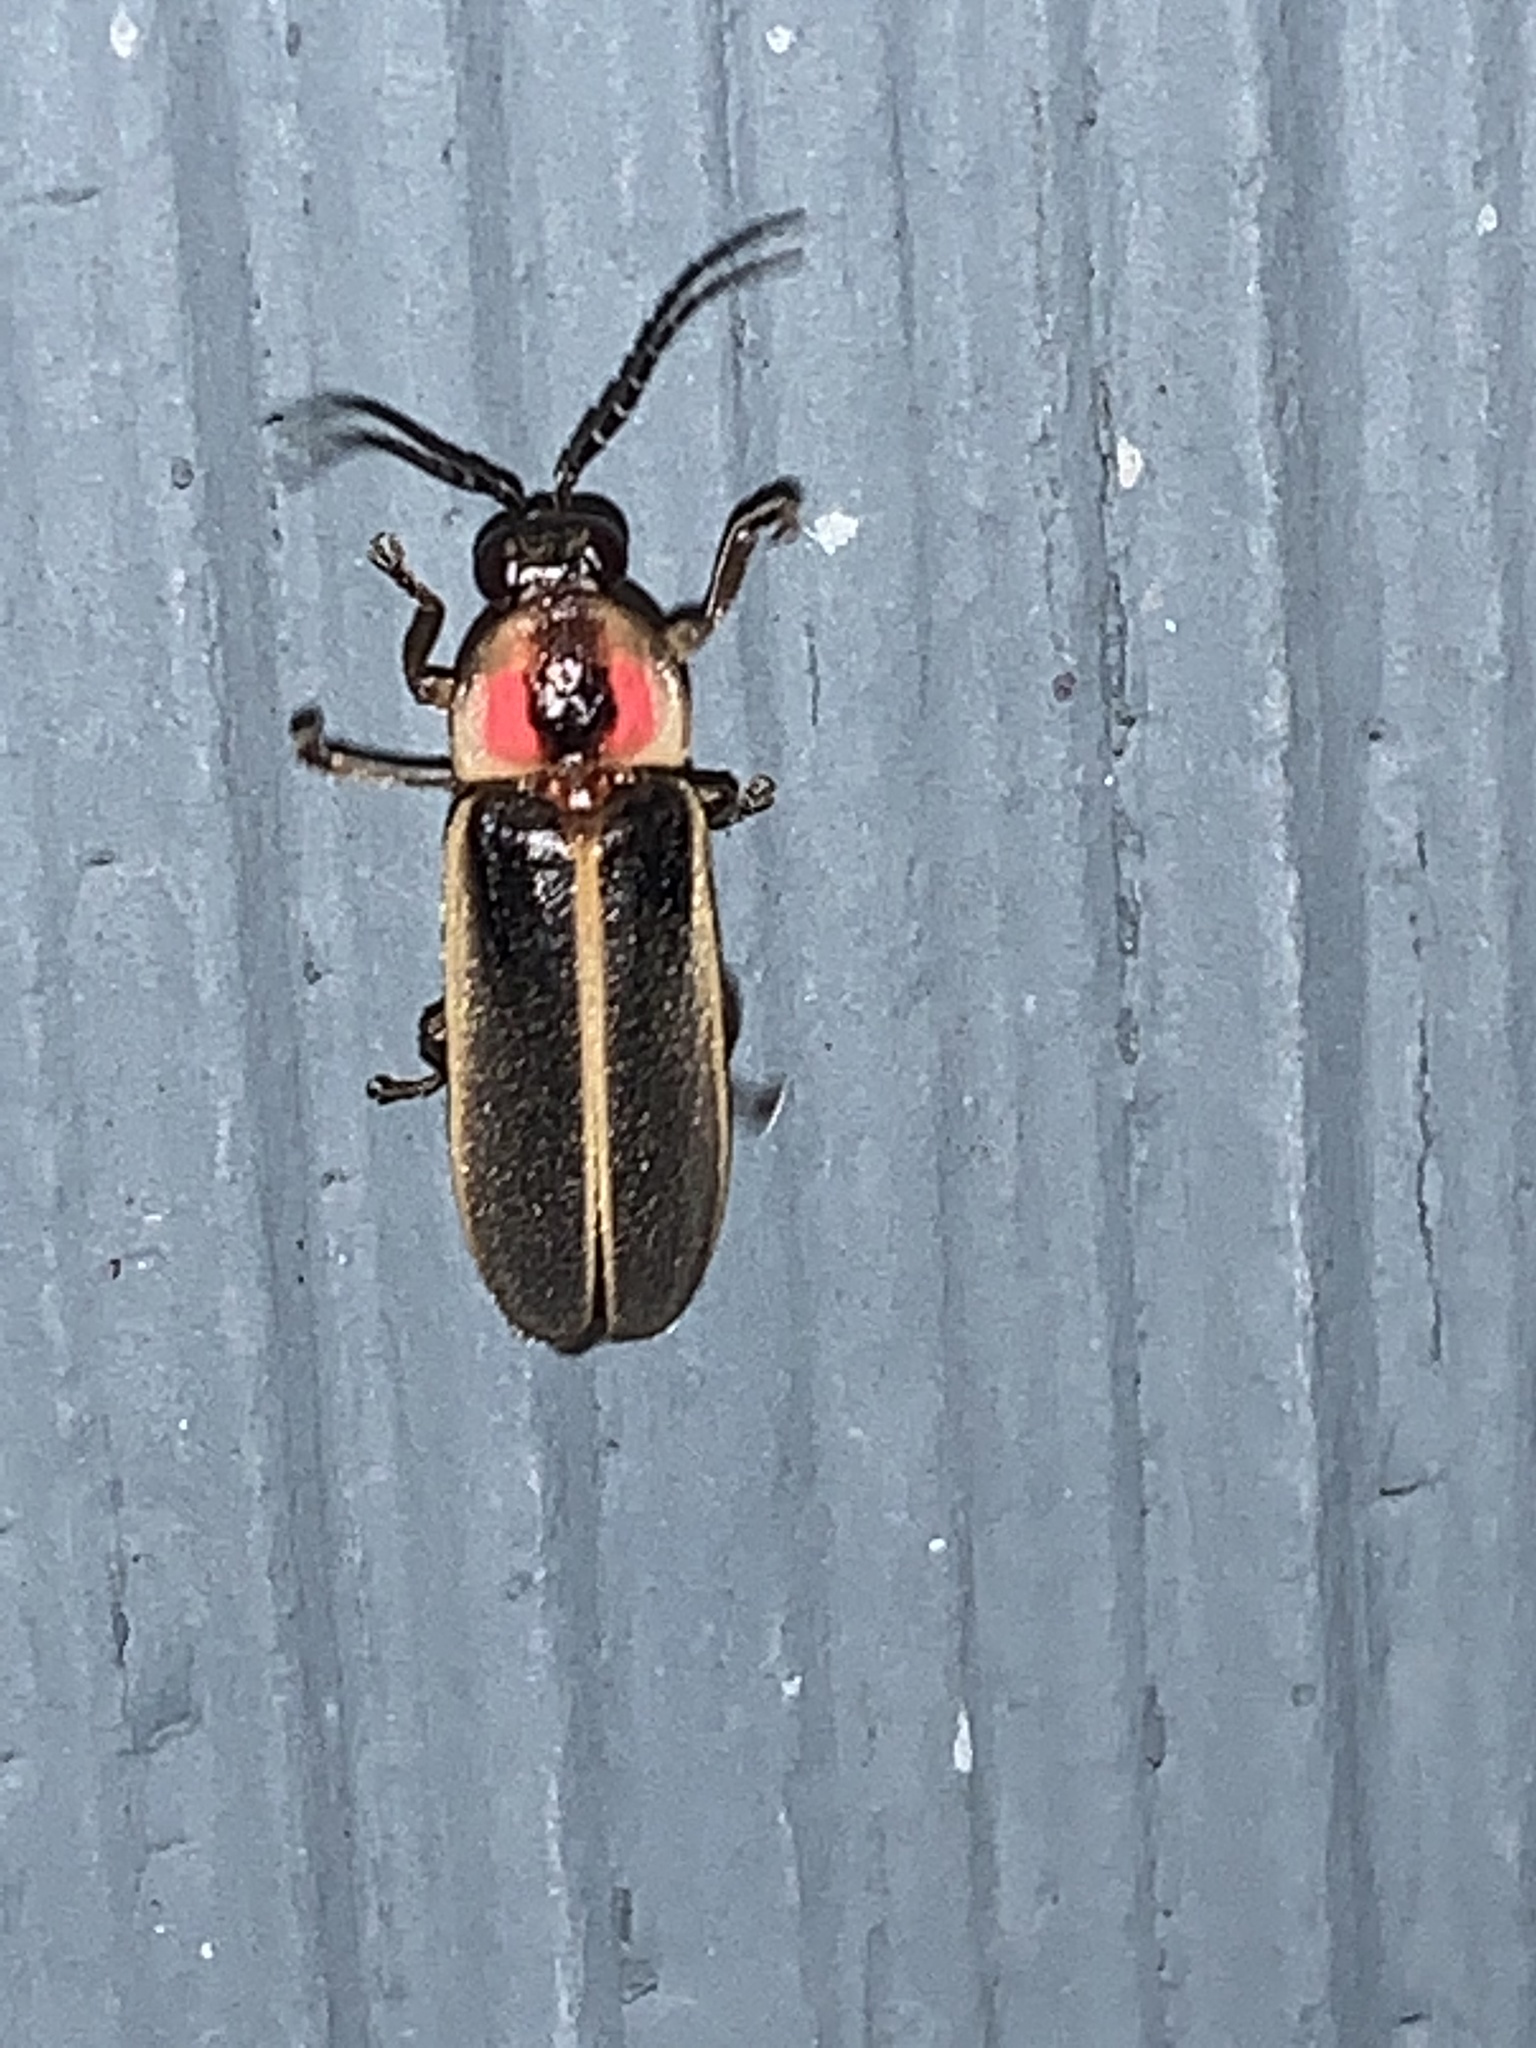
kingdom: Animalia
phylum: Arthropoda
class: Insecta
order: Coleoptera
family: Lampyridae
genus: Photinus
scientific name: Photinus pyralis
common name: Big dipper firefly
